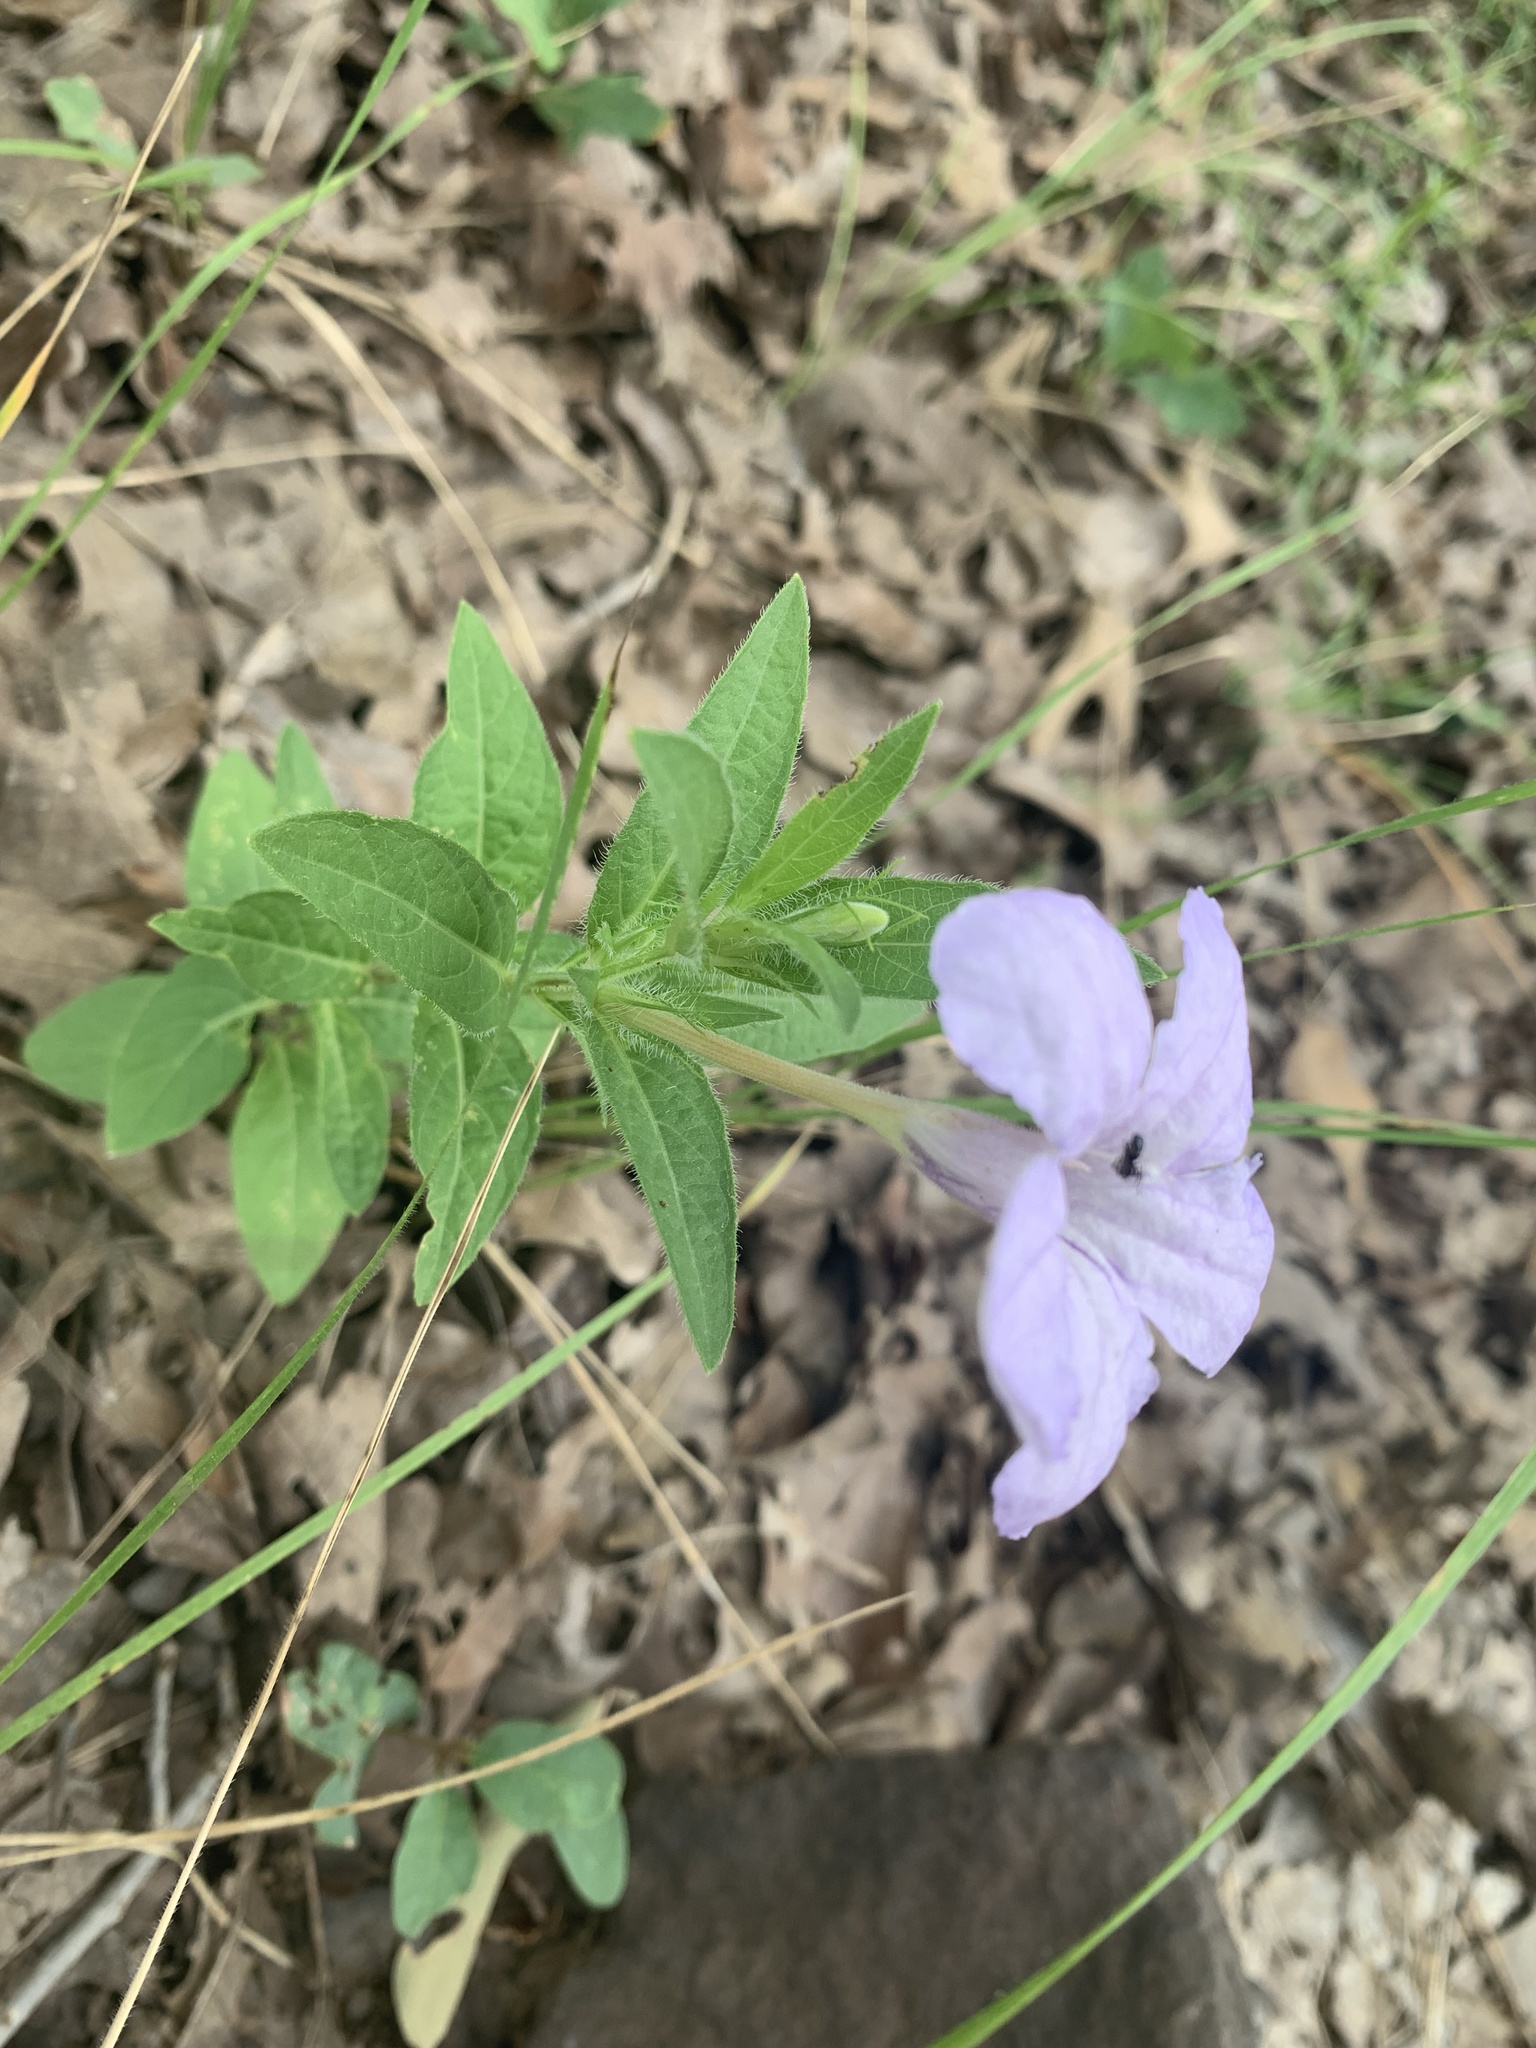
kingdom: Plantae
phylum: Tracheophyta
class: Magnoliopsida
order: Lamiales
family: Acanthaceae
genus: Ruellia
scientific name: Ruellia humilis
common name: Fringe-leaf ruellia
